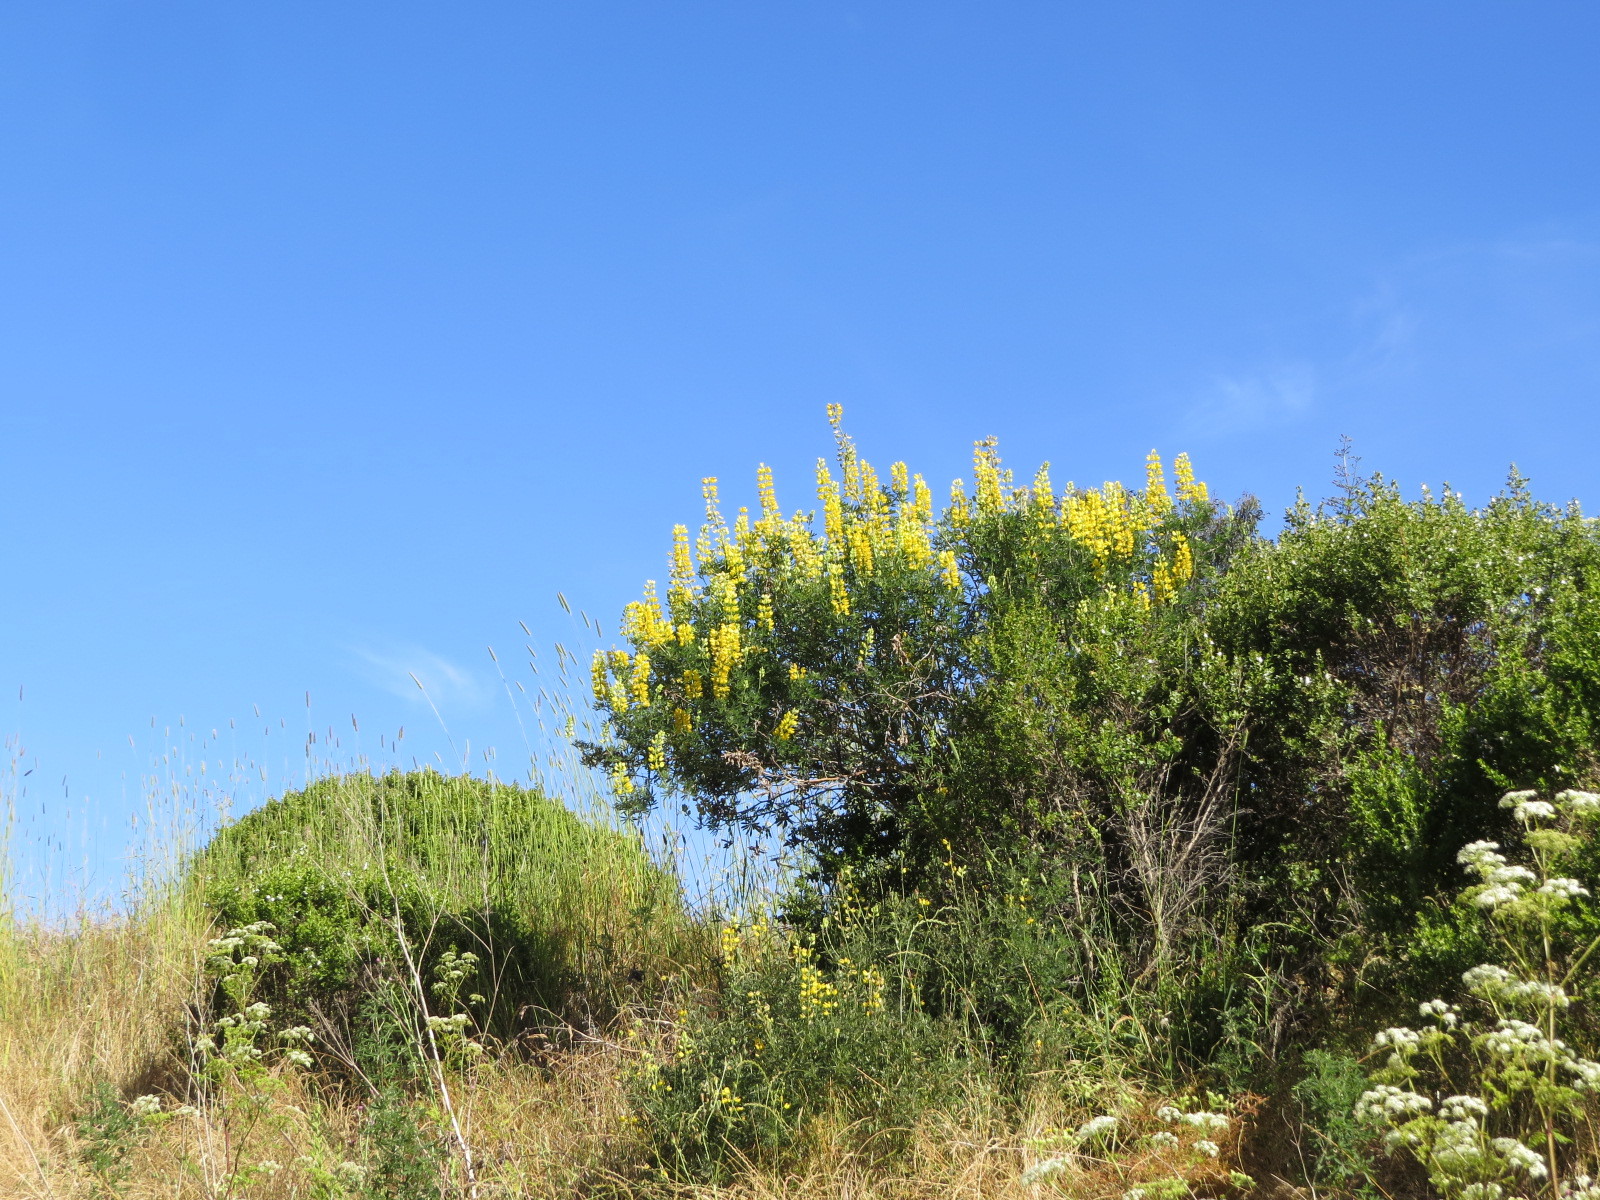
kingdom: Plantae
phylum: Tracheophyta
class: Magnoliopsida
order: Fabales
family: Fabaceae
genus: Lupinus
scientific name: Lupinus arboreus
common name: Yellow bush lupine
